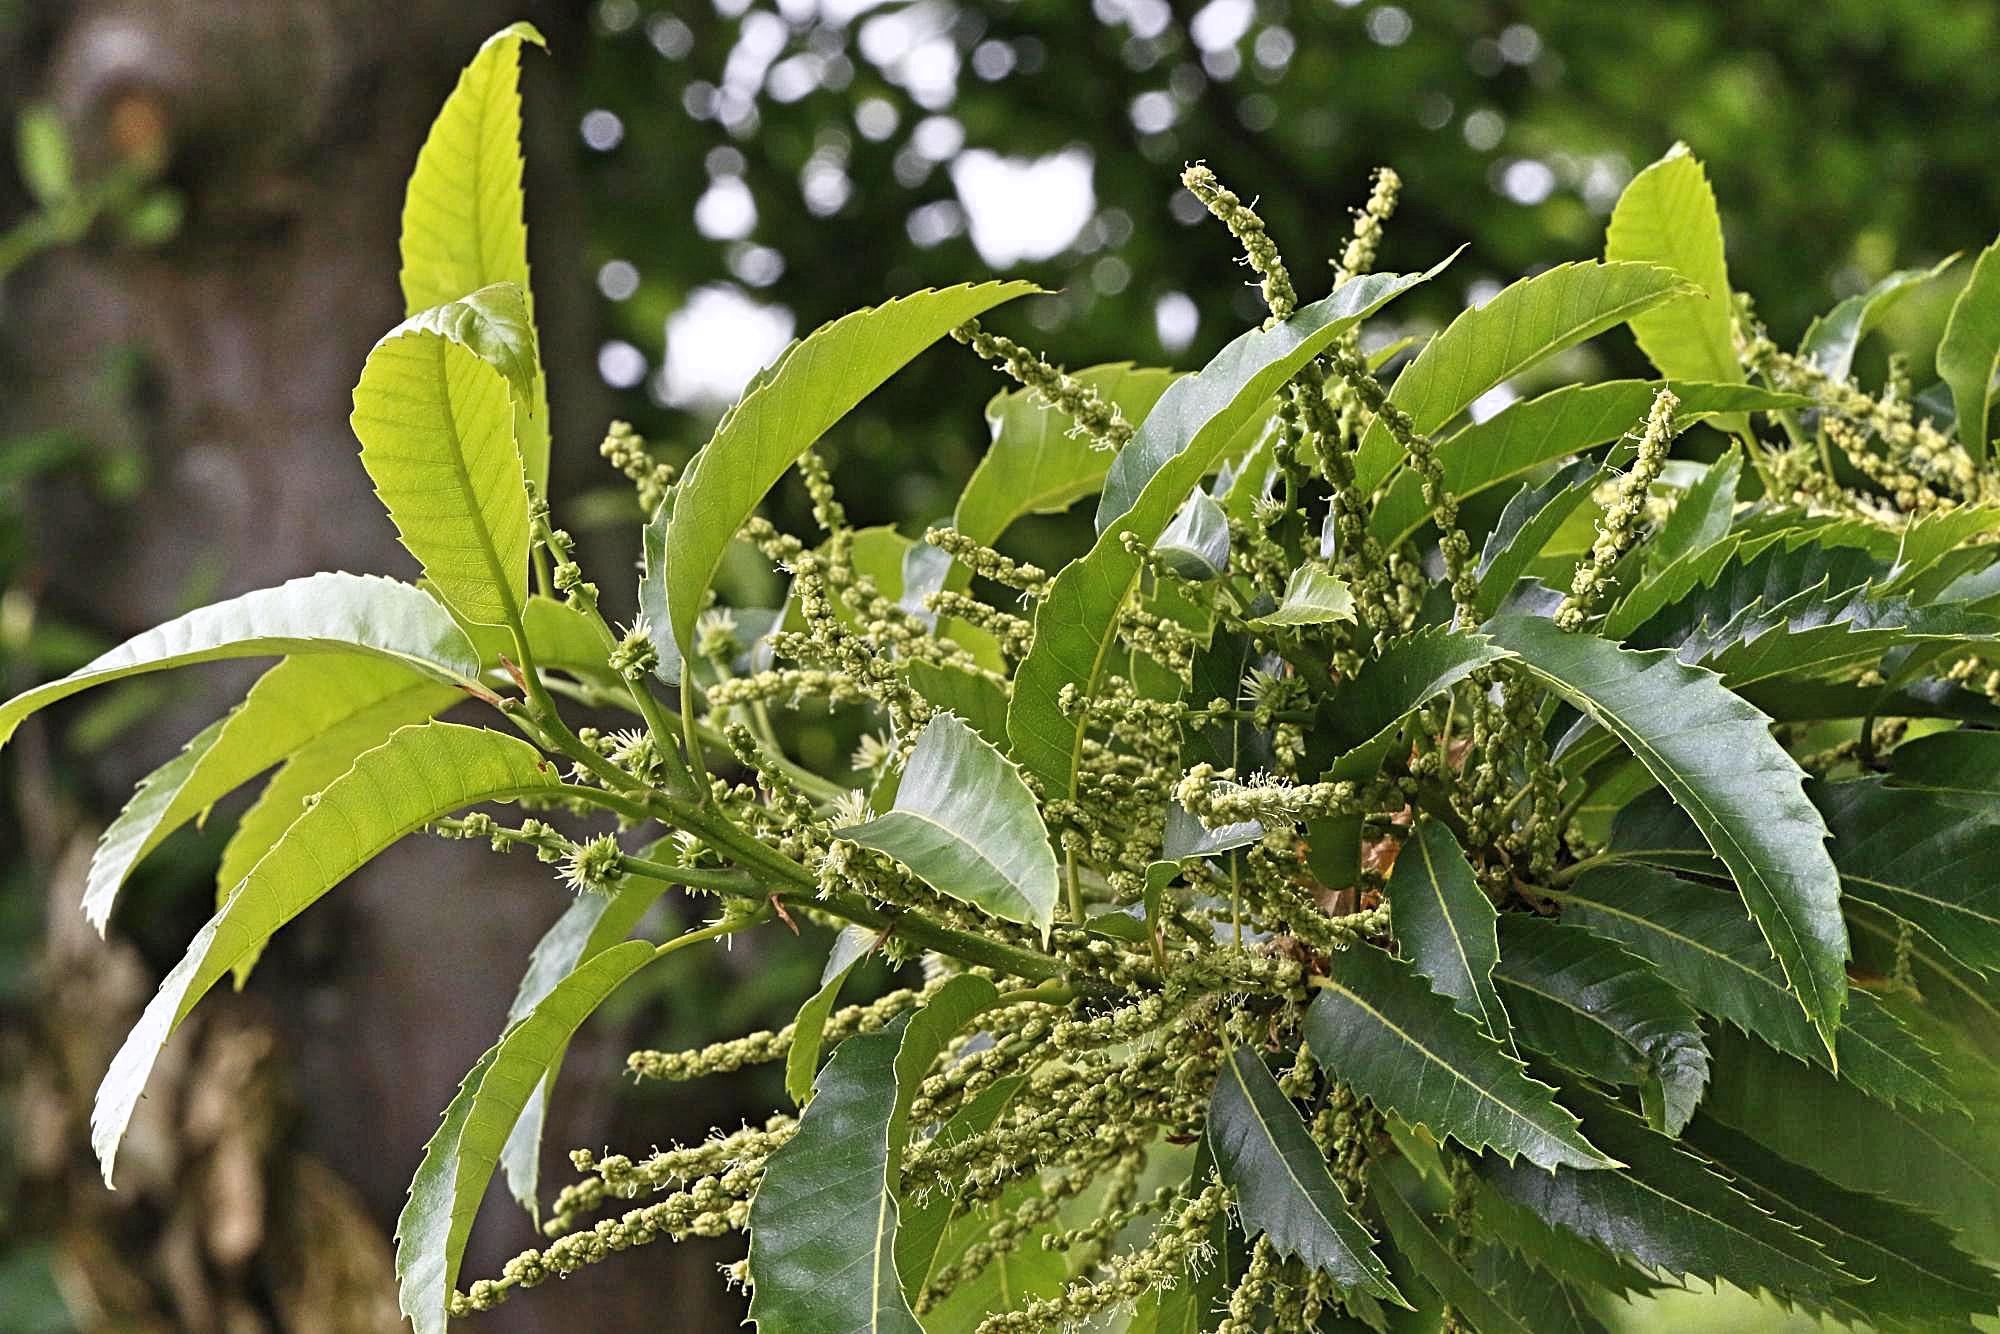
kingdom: Plantae
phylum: Tracheophyta
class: Magnoliopsida
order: Fagales
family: Fagaceae
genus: Castanea
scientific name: Castanea sativa
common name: Sweet chestnut
